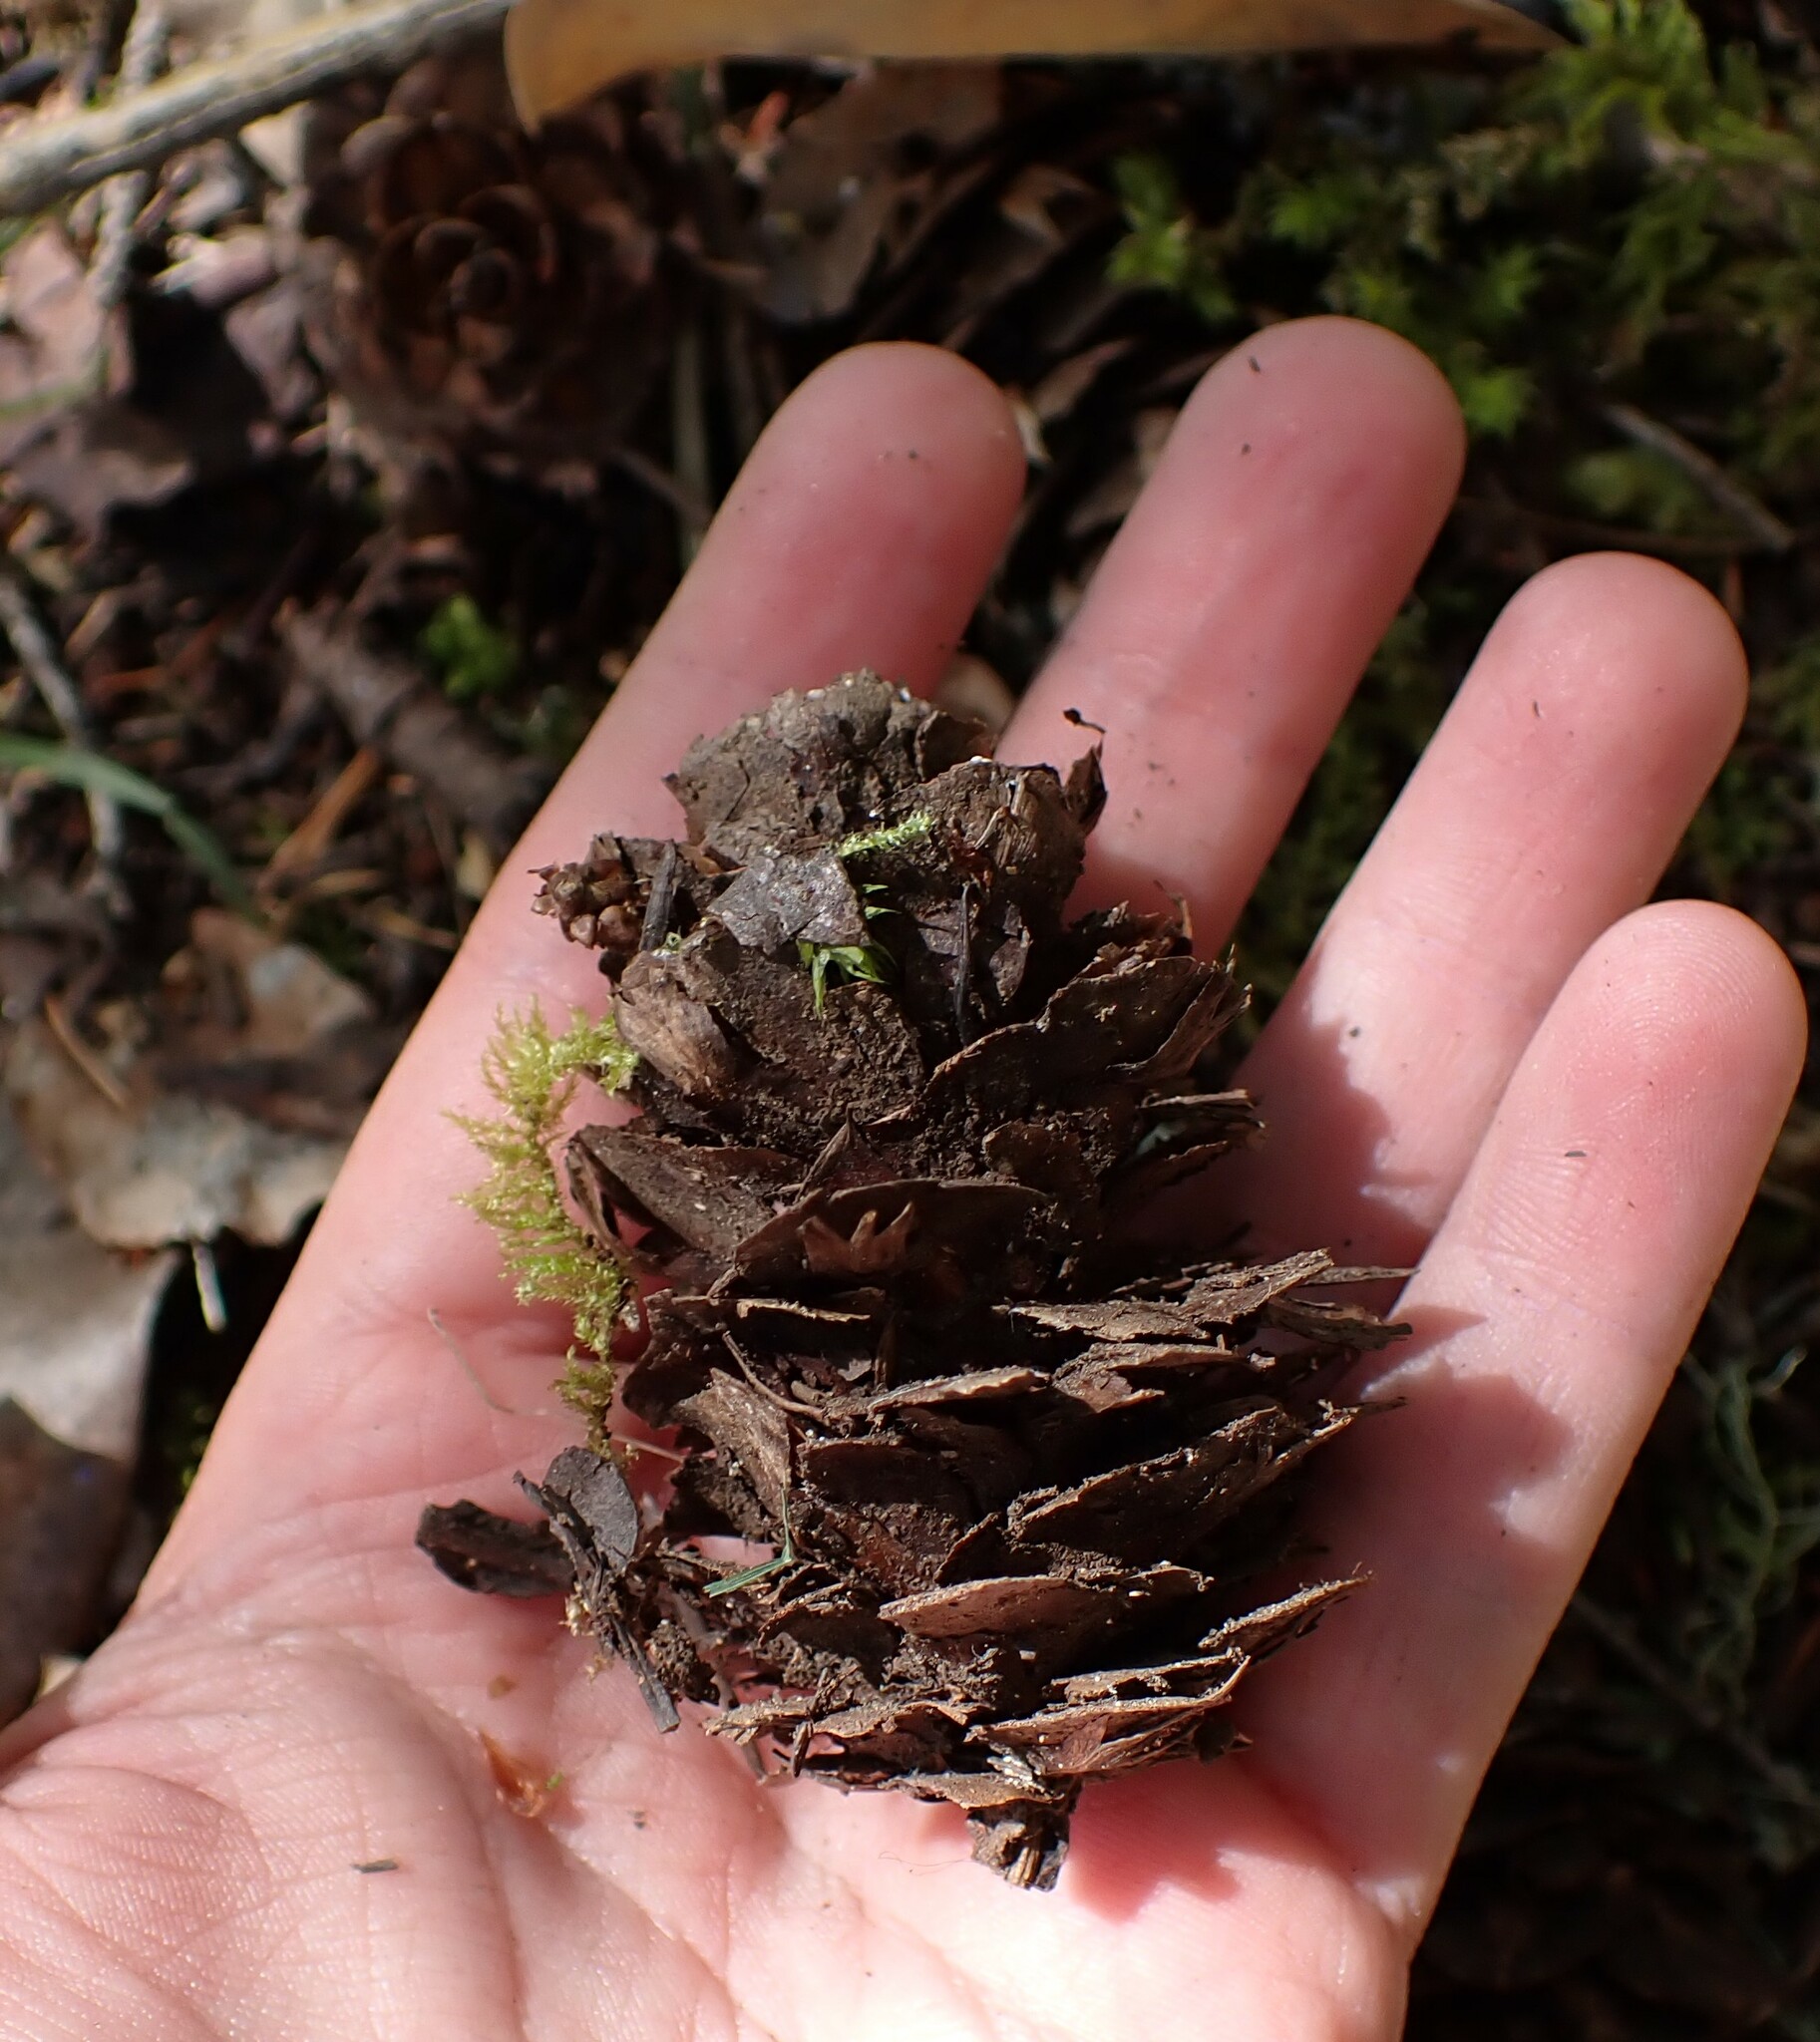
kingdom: Plantae
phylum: Tracheophyta
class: Pinopsida
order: Pinales
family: Pinaceae
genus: Pseudotsuga
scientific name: Pseudotsuga menziesii
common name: Douglas fir
